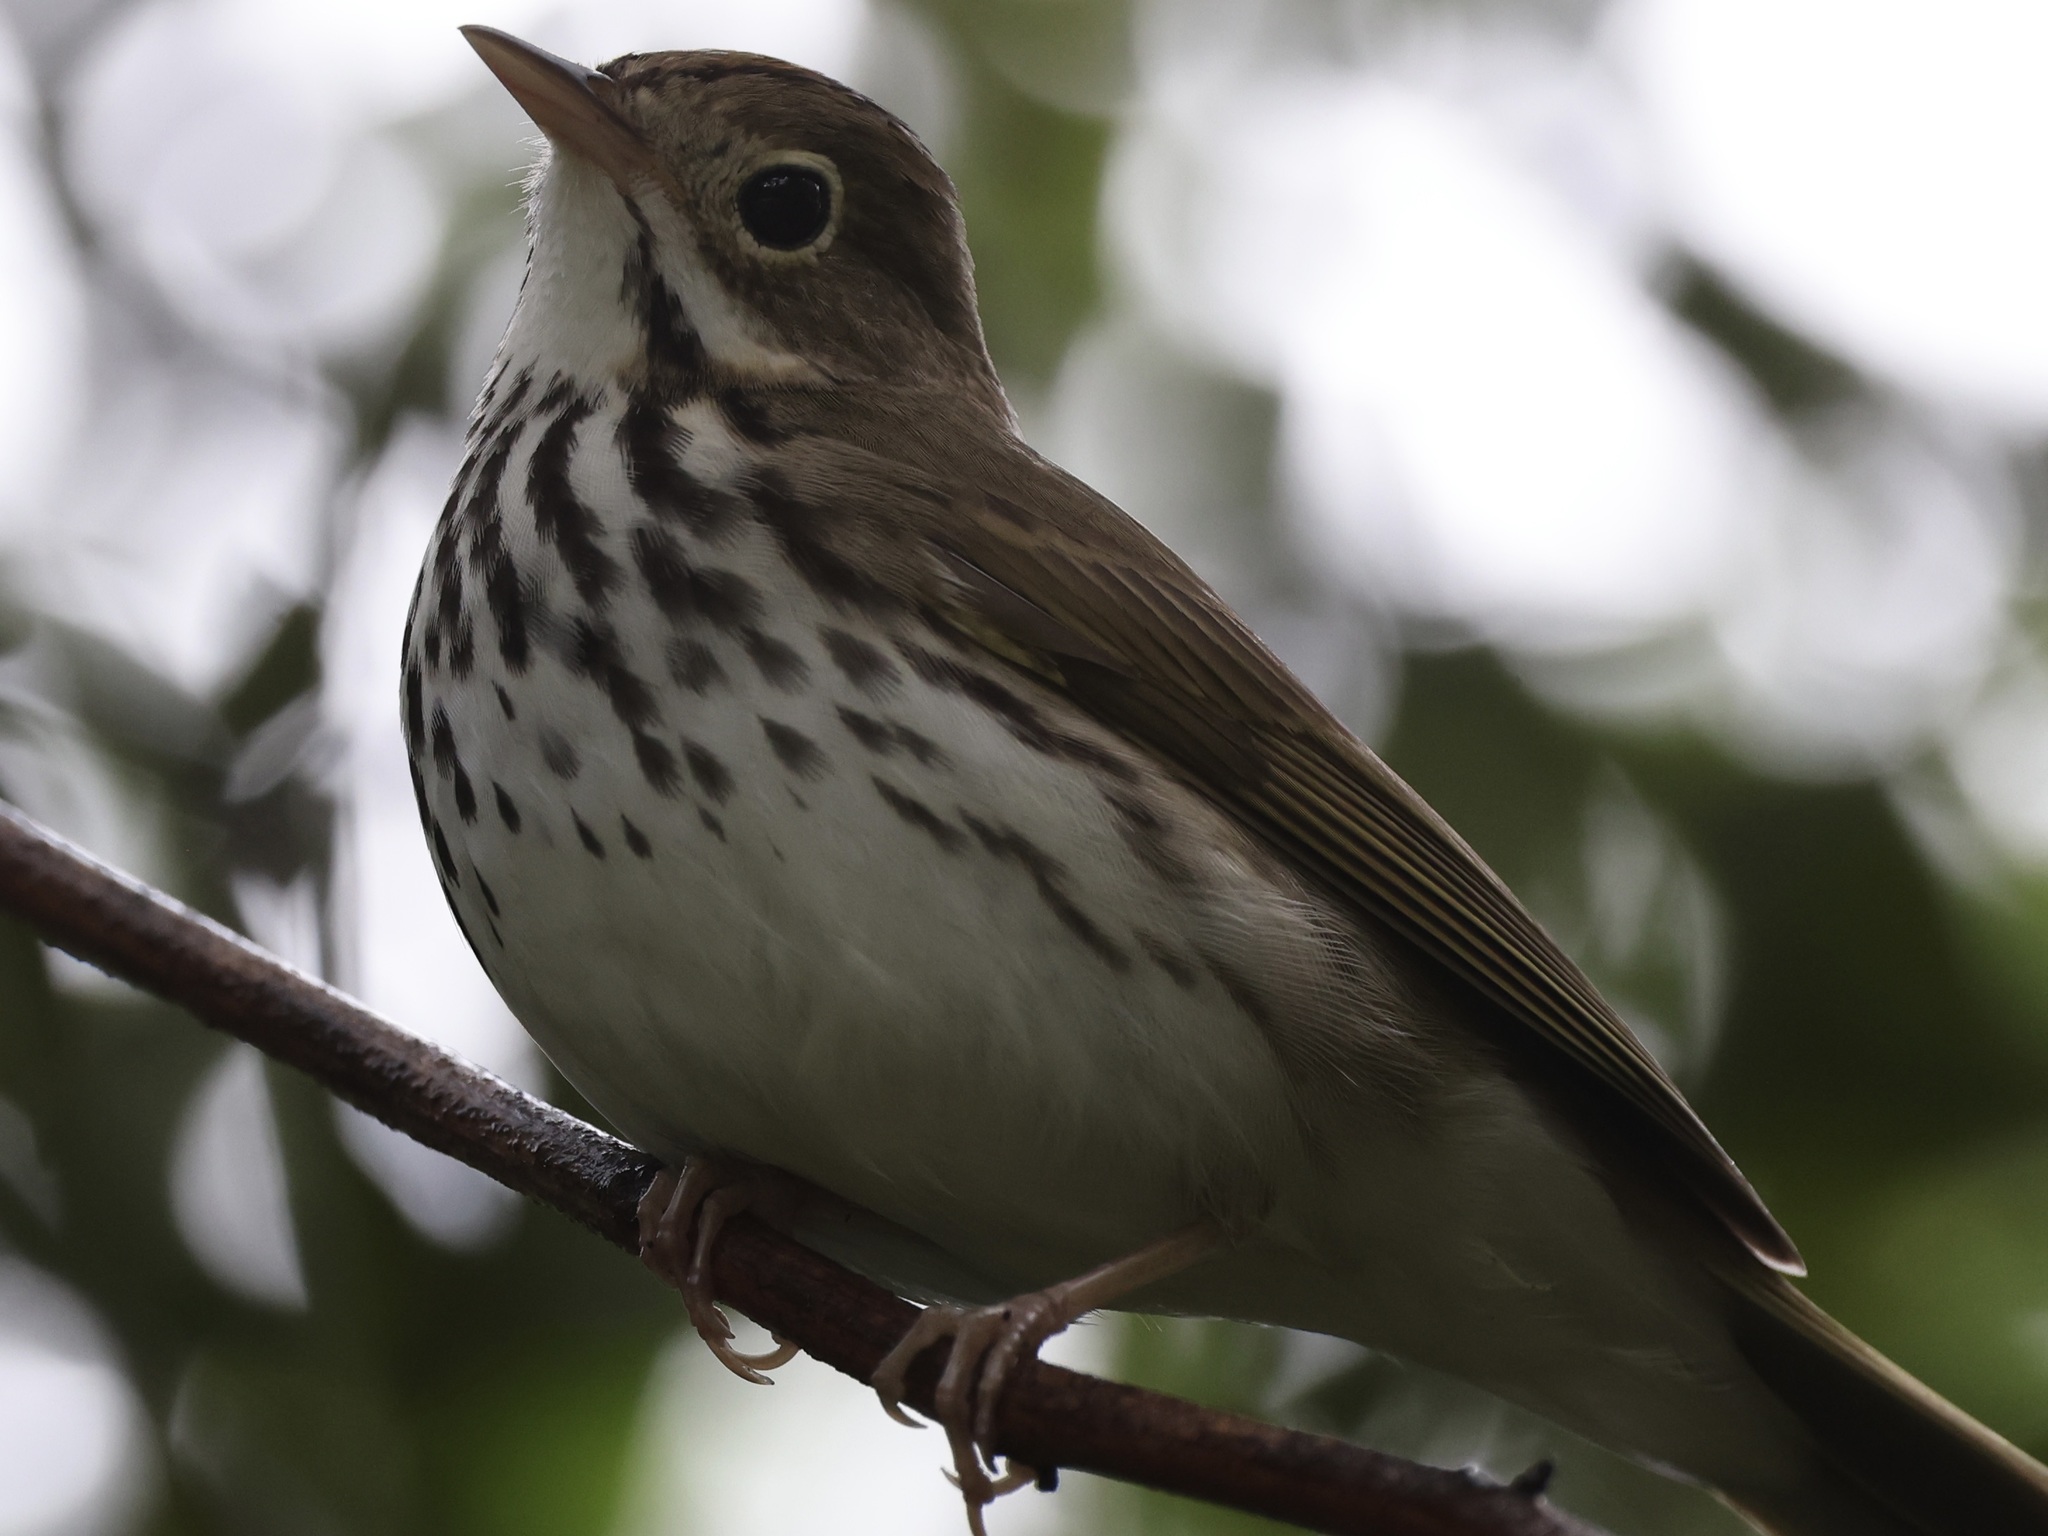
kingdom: Animalia
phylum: Chordata
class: Aves
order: Passeriformes
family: Parulidae
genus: Seiurus
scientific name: Seiurus aurocapilla
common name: Ovenbird
